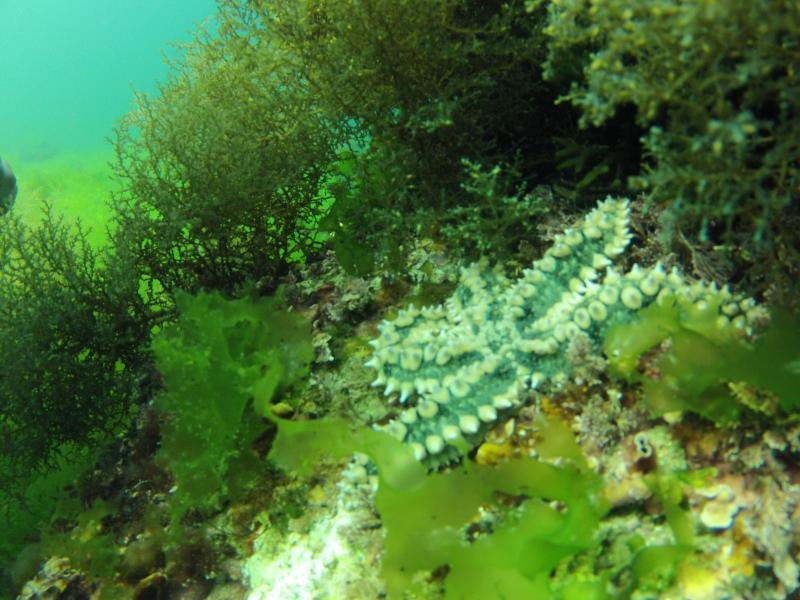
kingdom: Animalia
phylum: Echinodermata
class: Asteroidea
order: Forcipulatida
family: Asteriidae
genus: Marthasterias
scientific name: Marthasterias glacialis
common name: Spiny starfish
